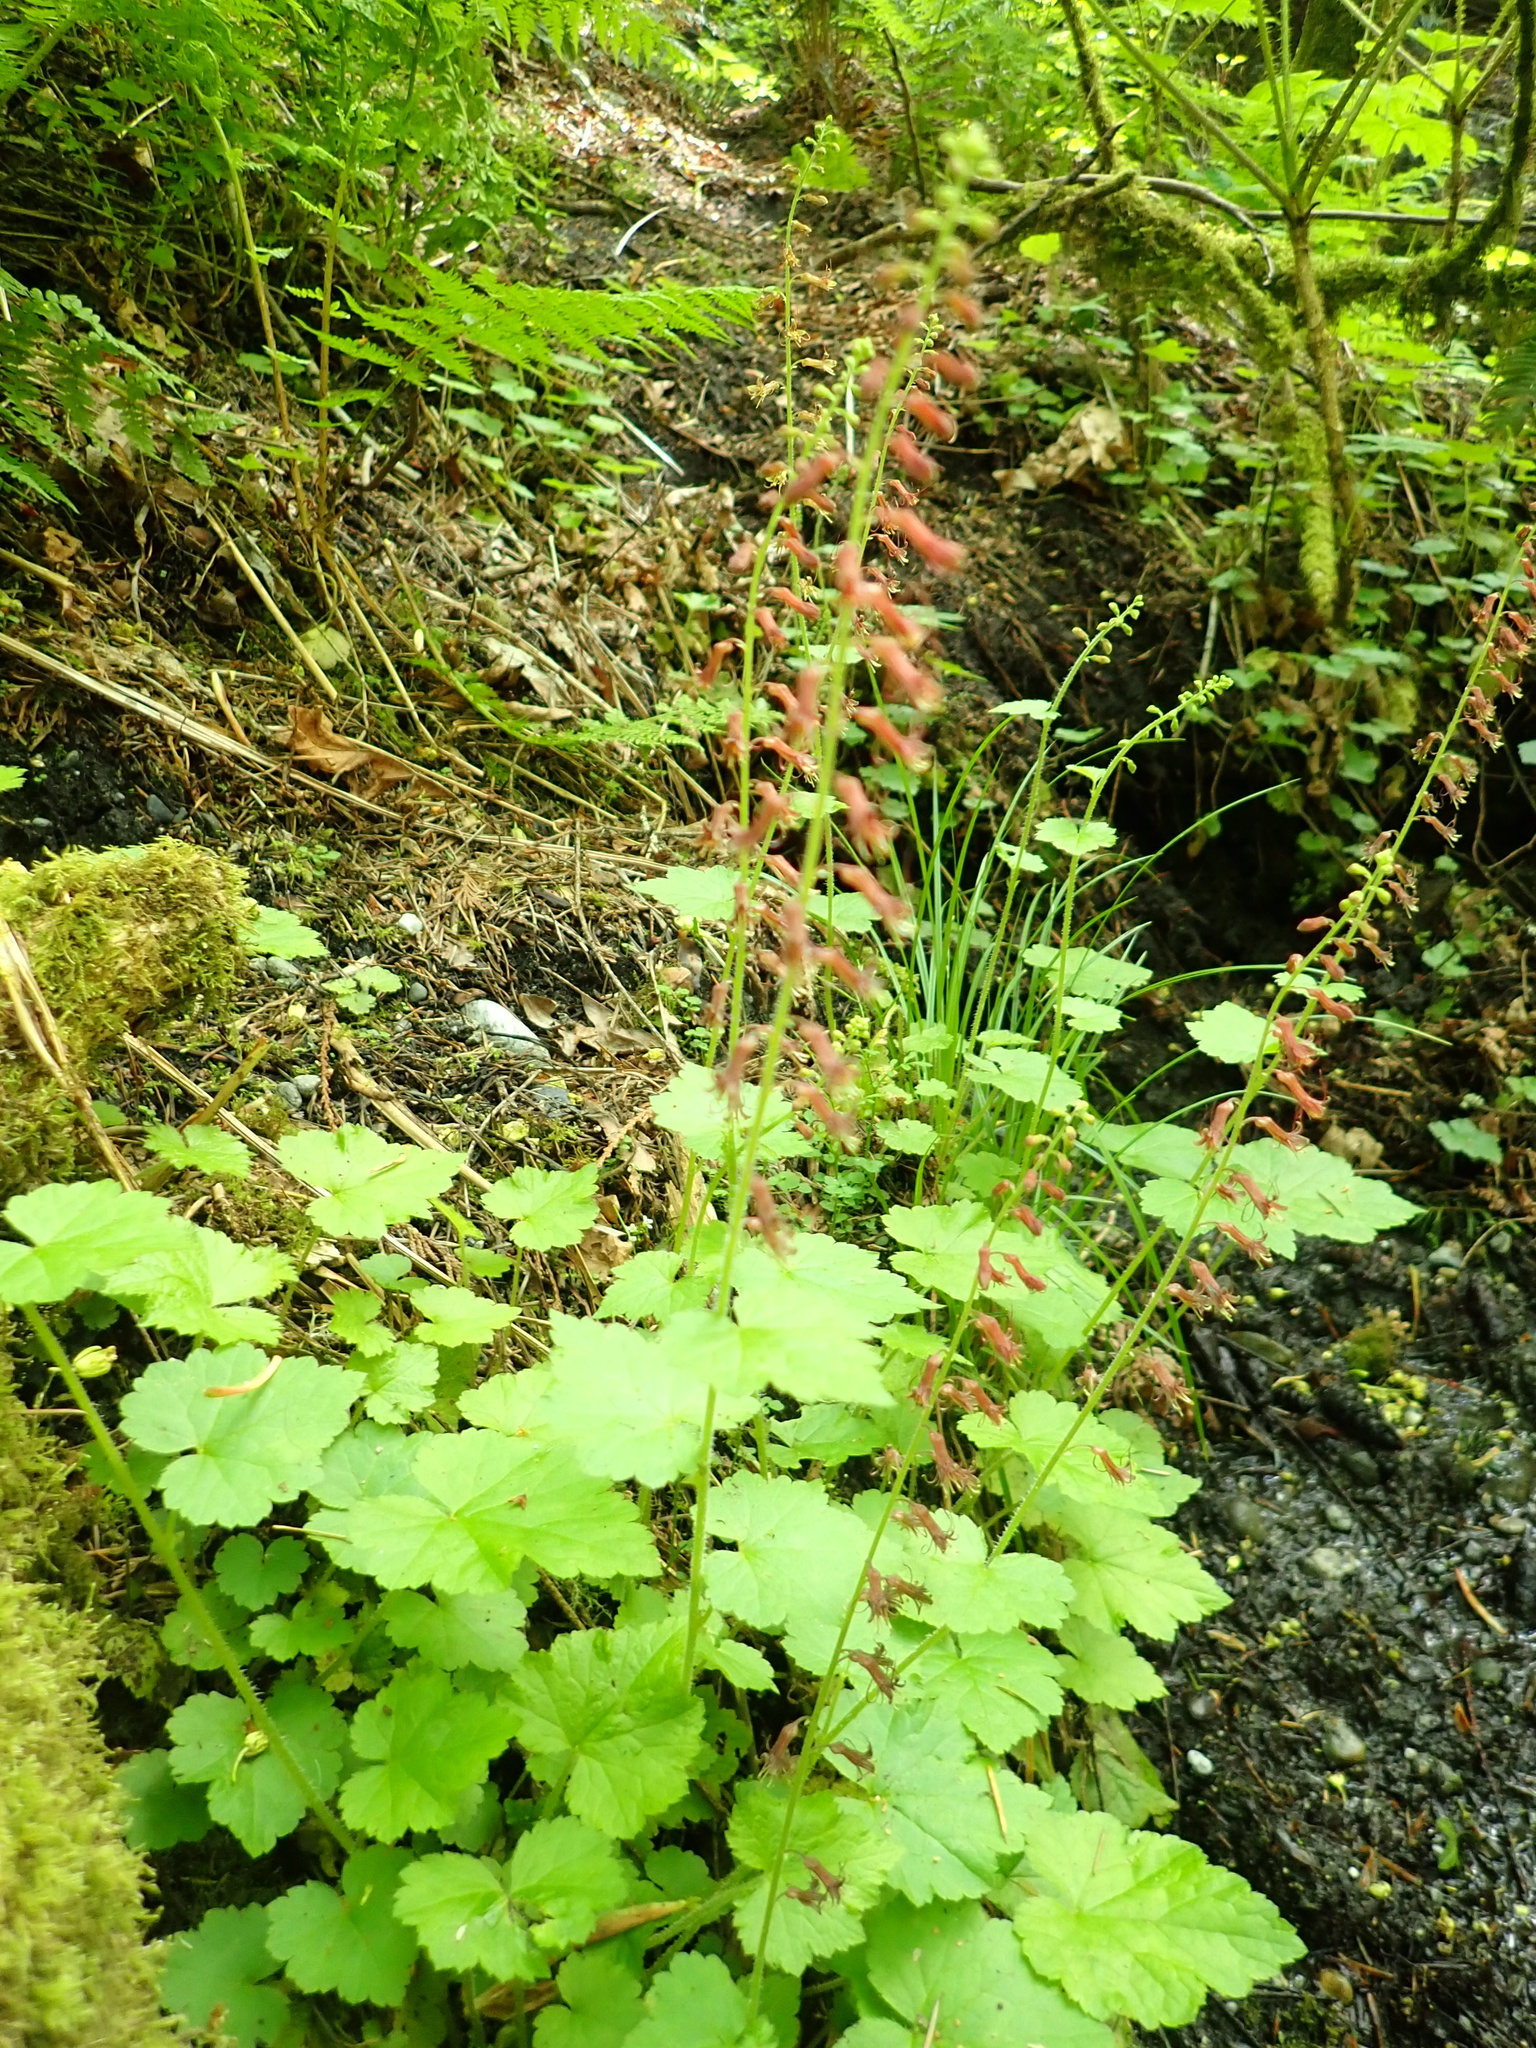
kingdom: Plantae
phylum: Tracheophyta
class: Magnoliopsida
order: Saxifragales
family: Saxifragaceae
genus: Tolmiea
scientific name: Tolmiea menziesii
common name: Pick-a-back-plant
